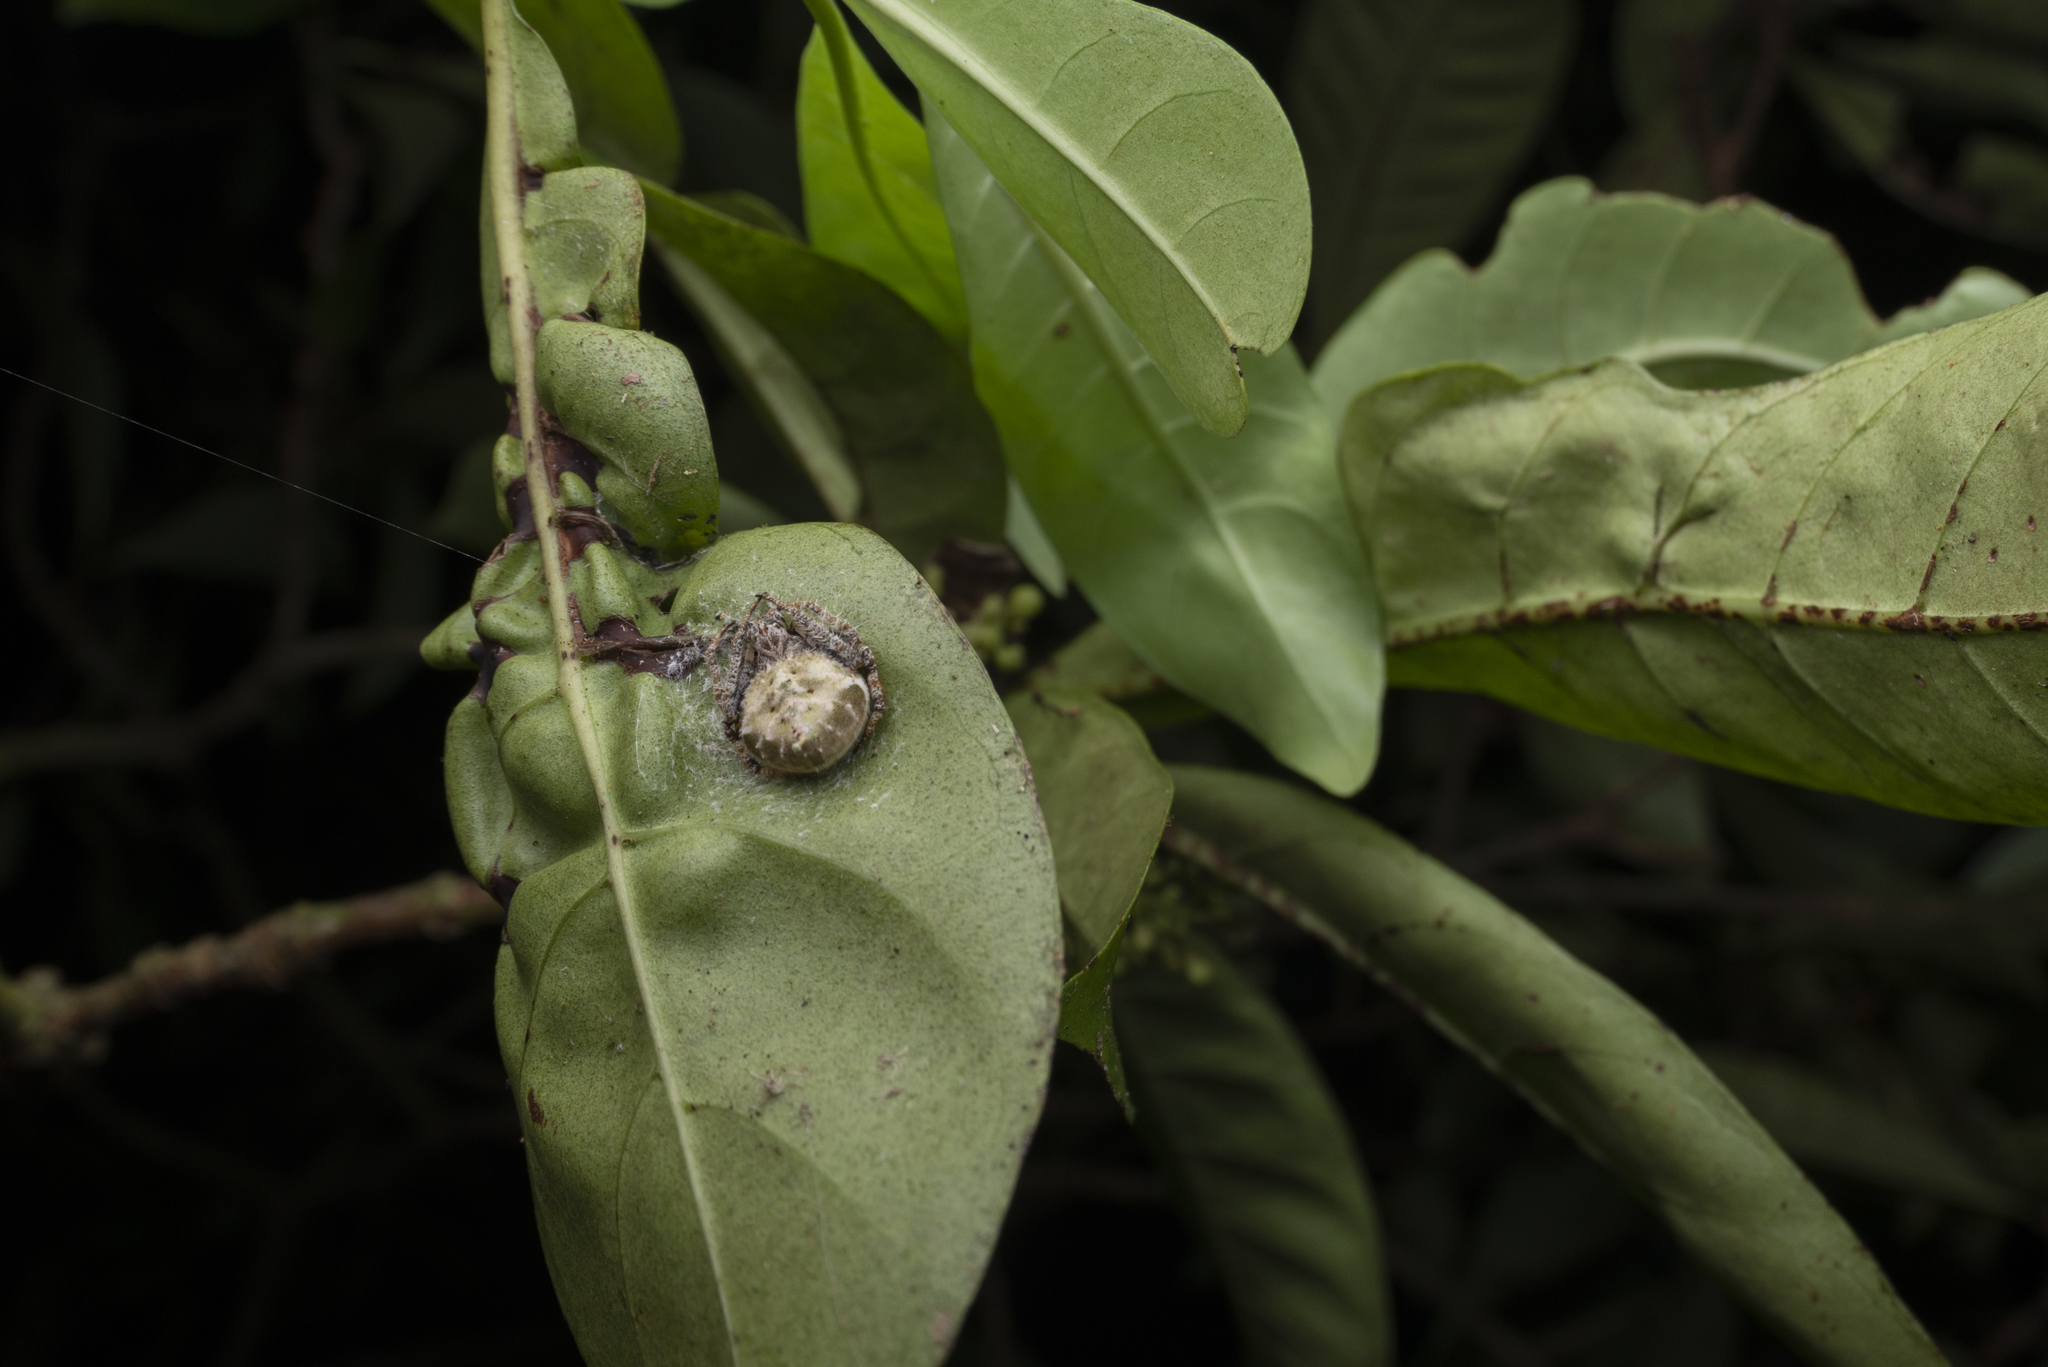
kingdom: Animalia
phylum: Arthropoda
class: Arachnida
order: Araneae
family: Araneidae
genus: Eriovixia
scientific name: Eriovixia laglaizei
